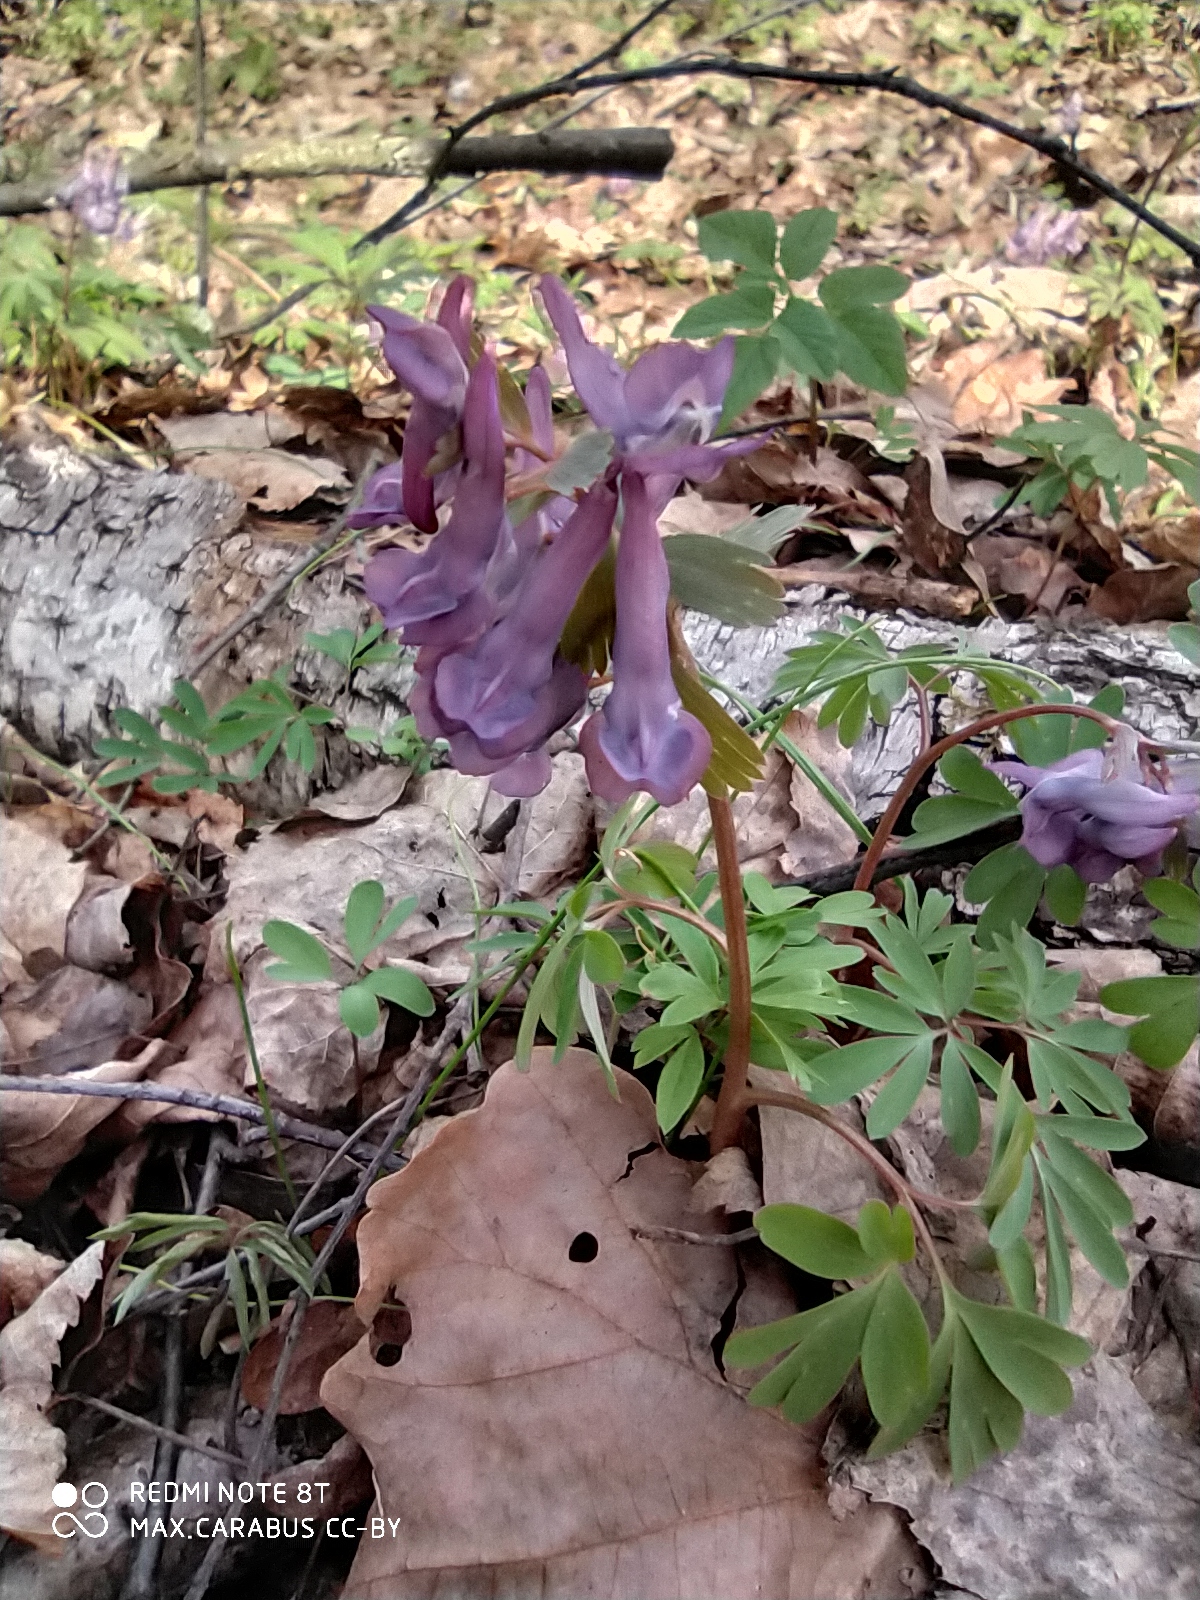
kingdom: Plantae
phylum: Tracheophyta
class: Magnoliopsida
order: Ranunculales
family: Papaveraceae
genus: Corydalis
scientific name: Corydalis solida
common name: Bird-in-a-bush
